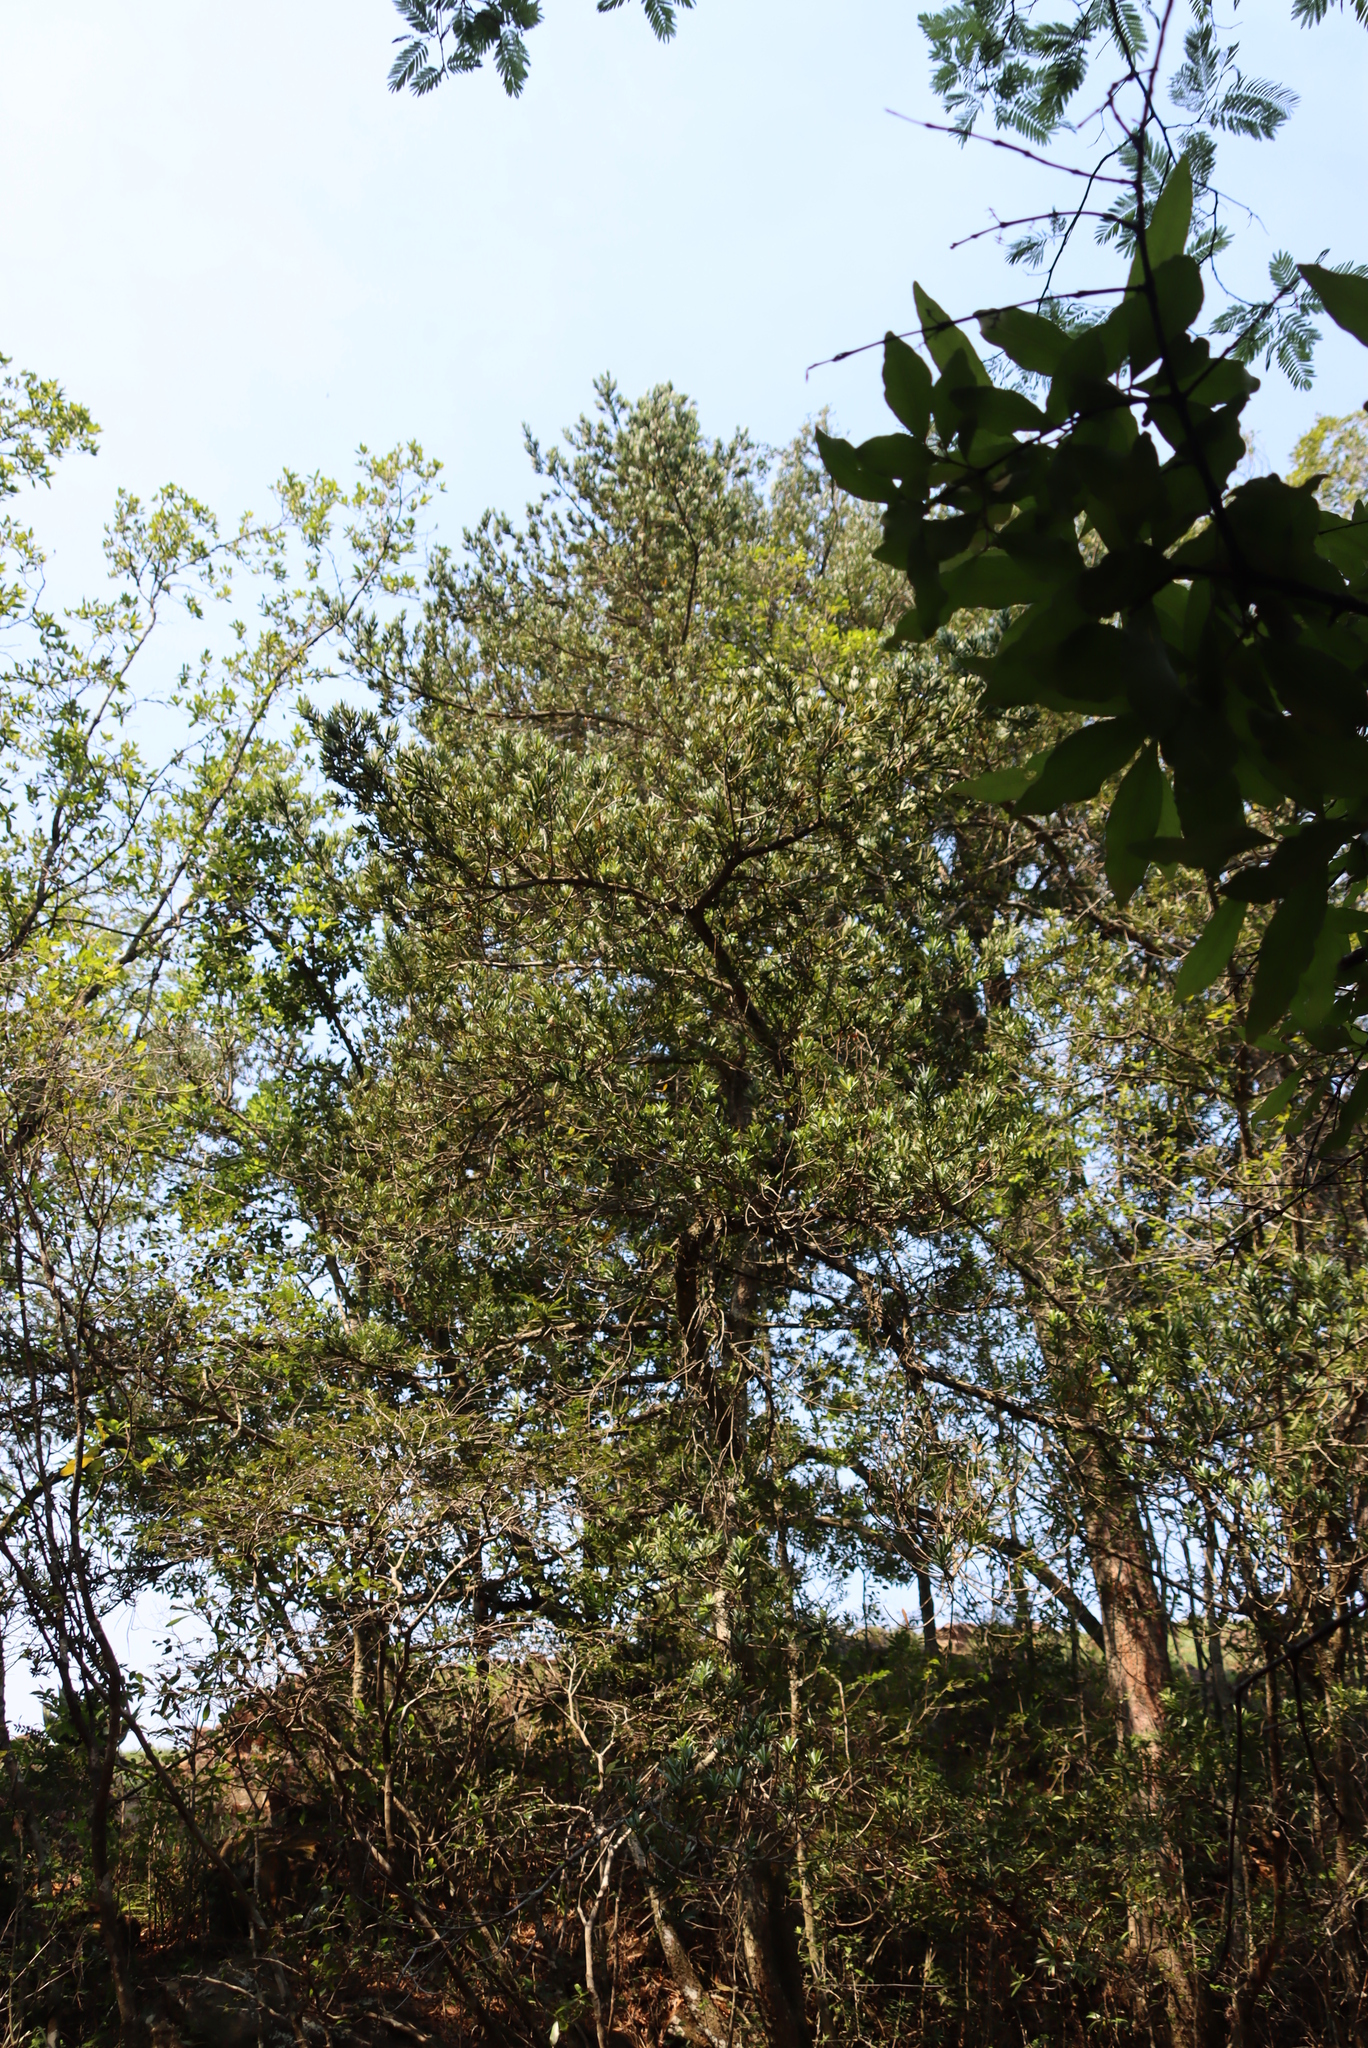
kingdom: Plantae
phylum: Tracheophyta
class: Pinopsida
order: Pinales
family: Podocarpaceae
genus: Podocarpus
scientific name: Podocarpus latifolius
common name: True yellowwood
